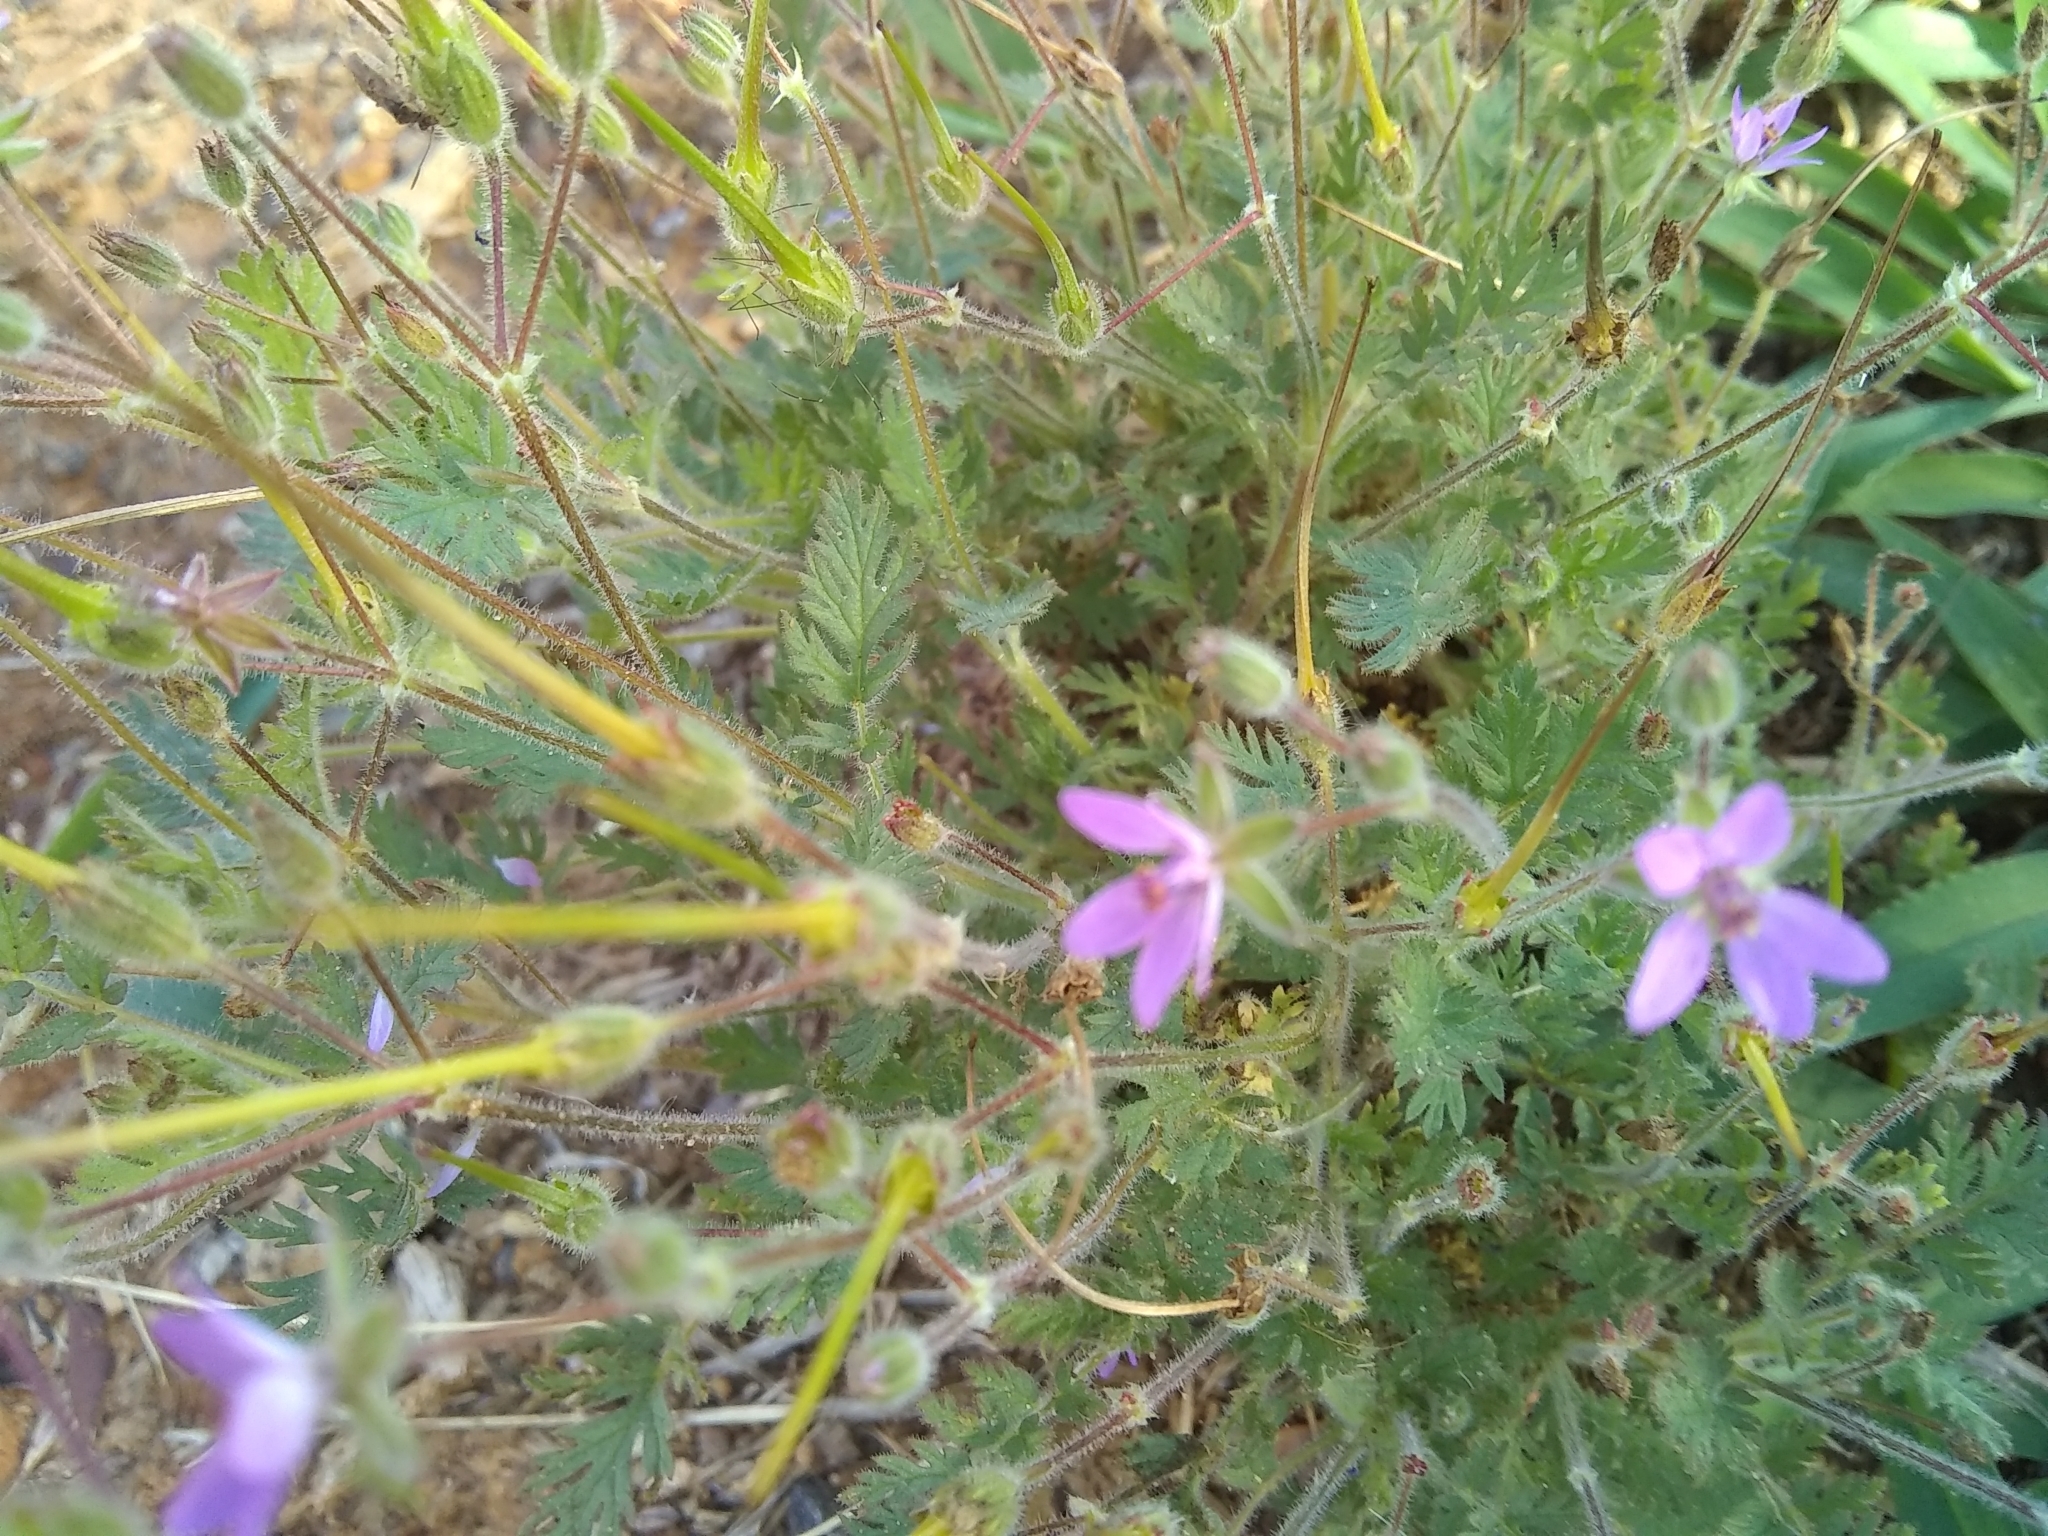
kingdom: Plantae
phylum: Tracheophyta
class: Magnoliopsida
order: Geraniales
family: Geraniaceae
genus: Erodium
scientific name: Erodium cicutarium
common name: Common stork's-bill
